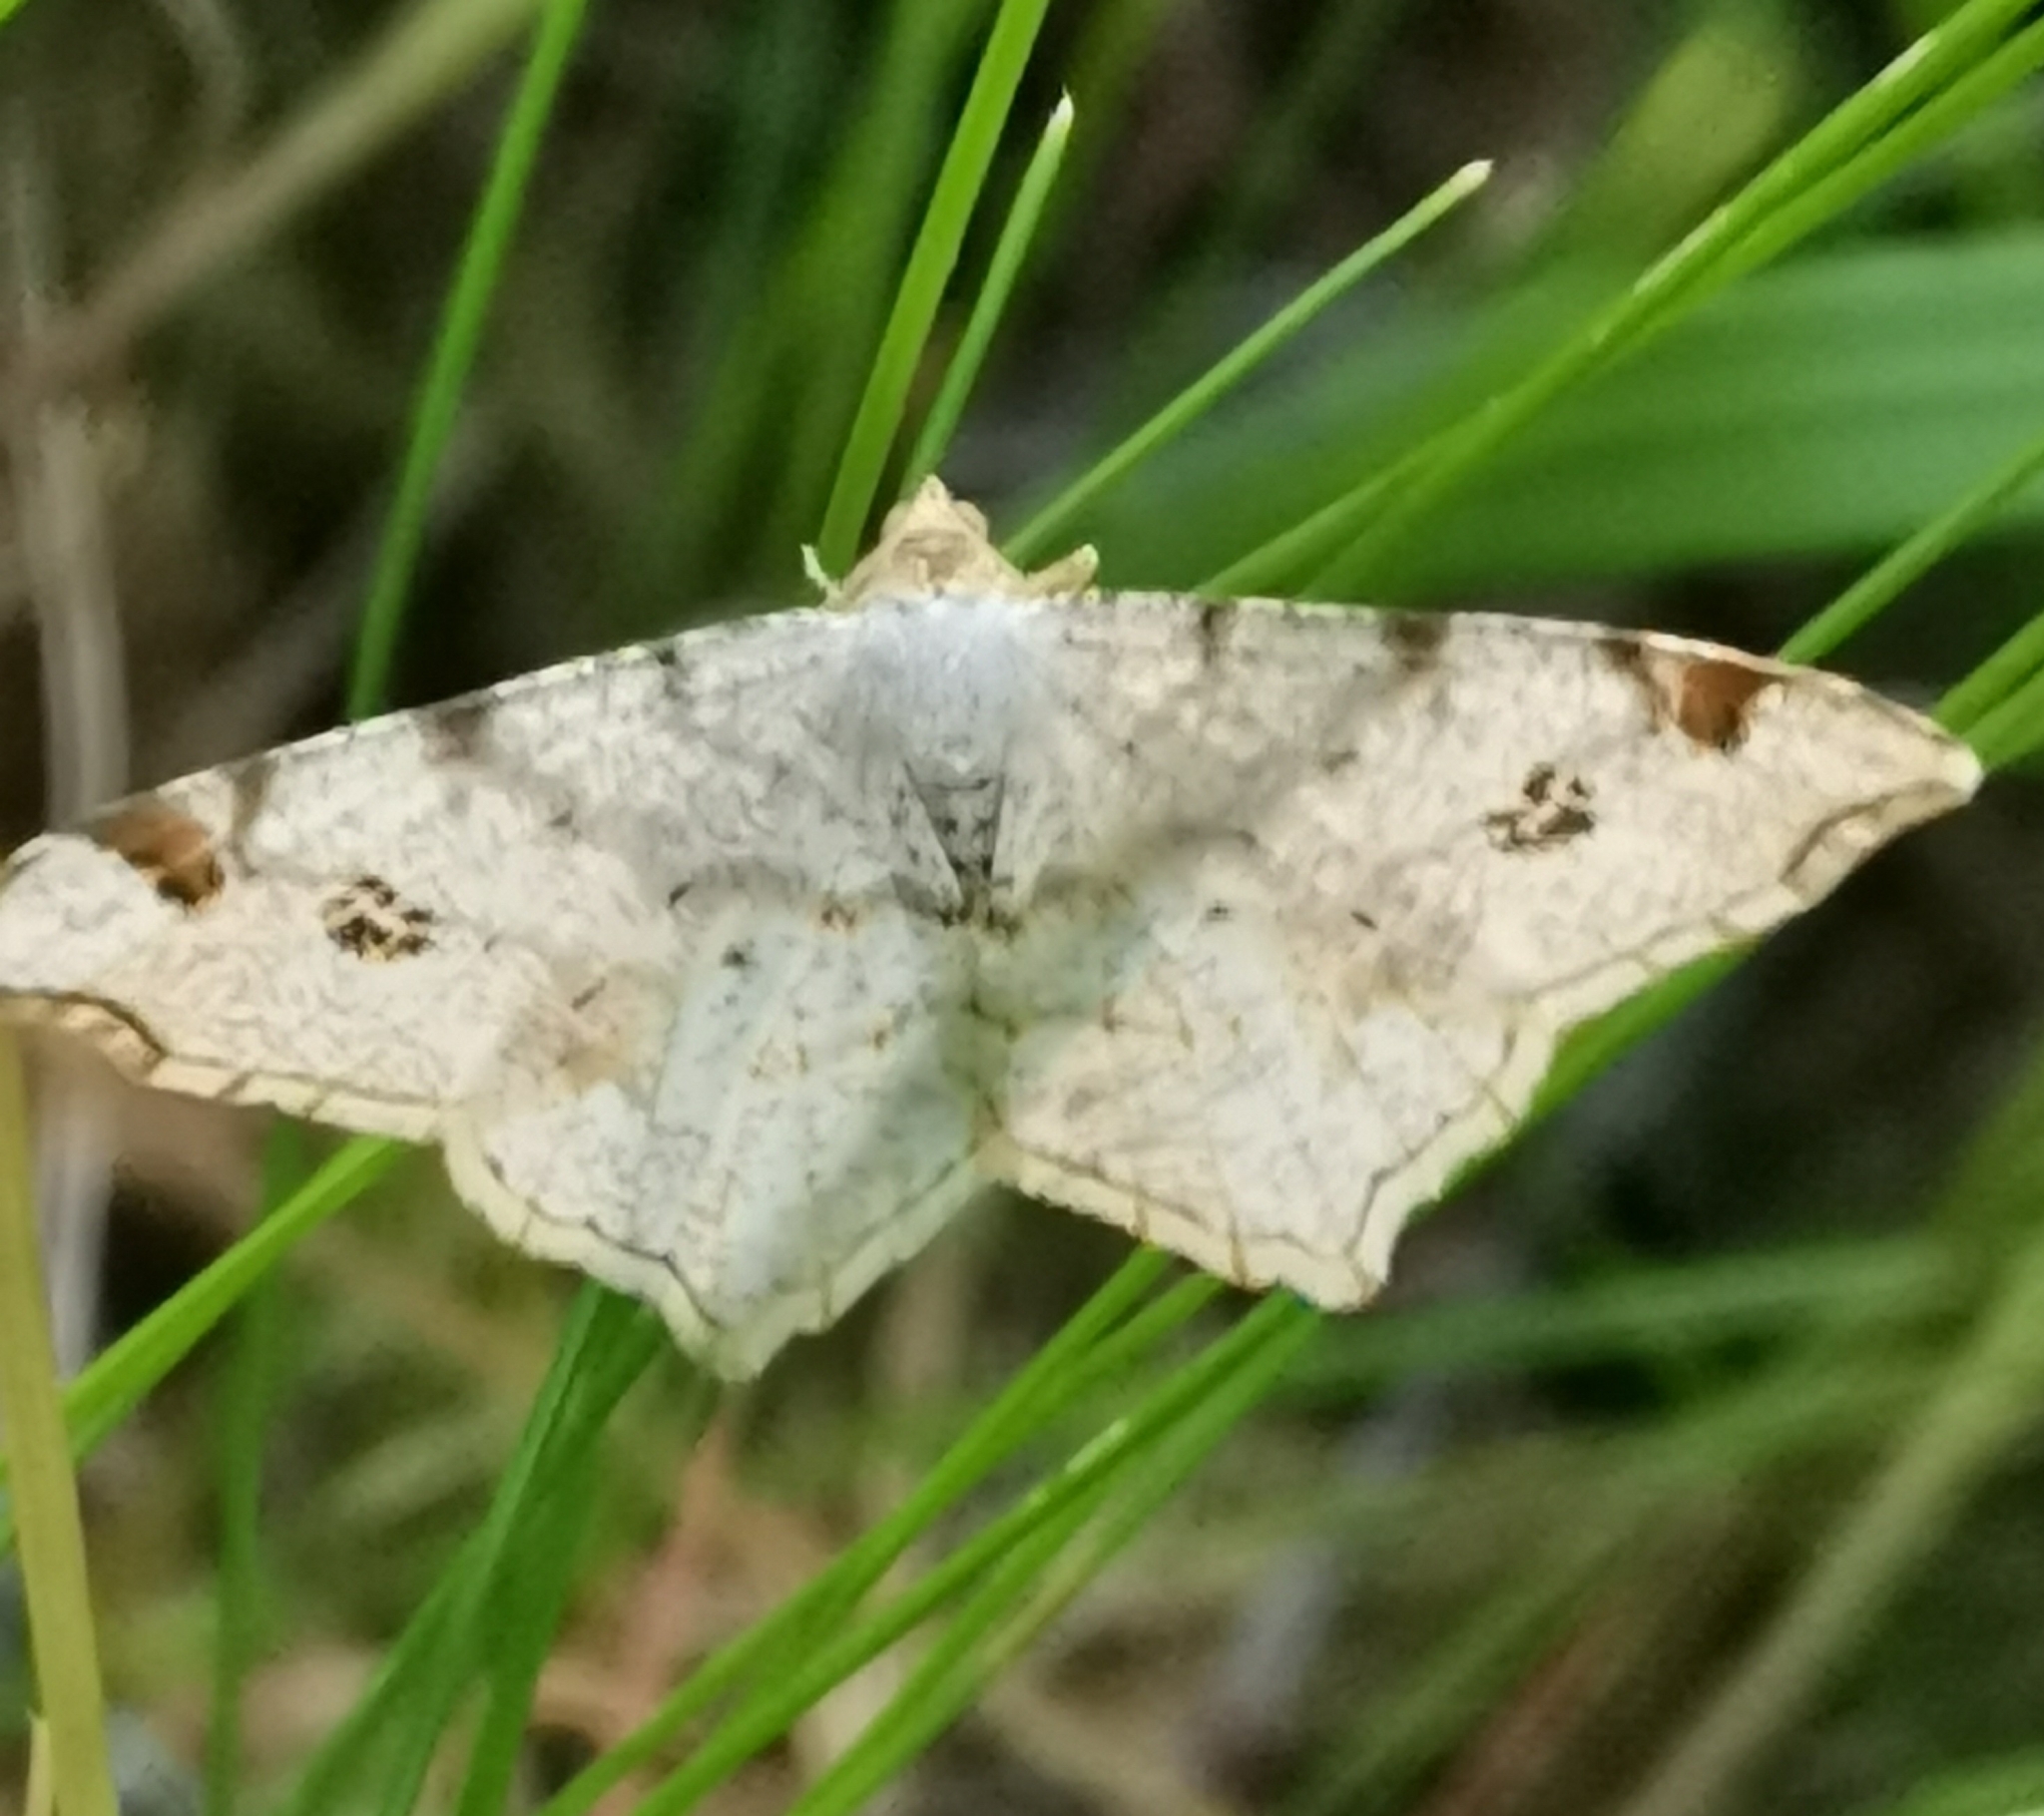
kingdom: Animalia
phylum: Arthropoda
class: Insecta
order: Lepidoptera
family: Geometridae
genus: Macaria
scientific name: Macaria notata
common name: Peacock moth
